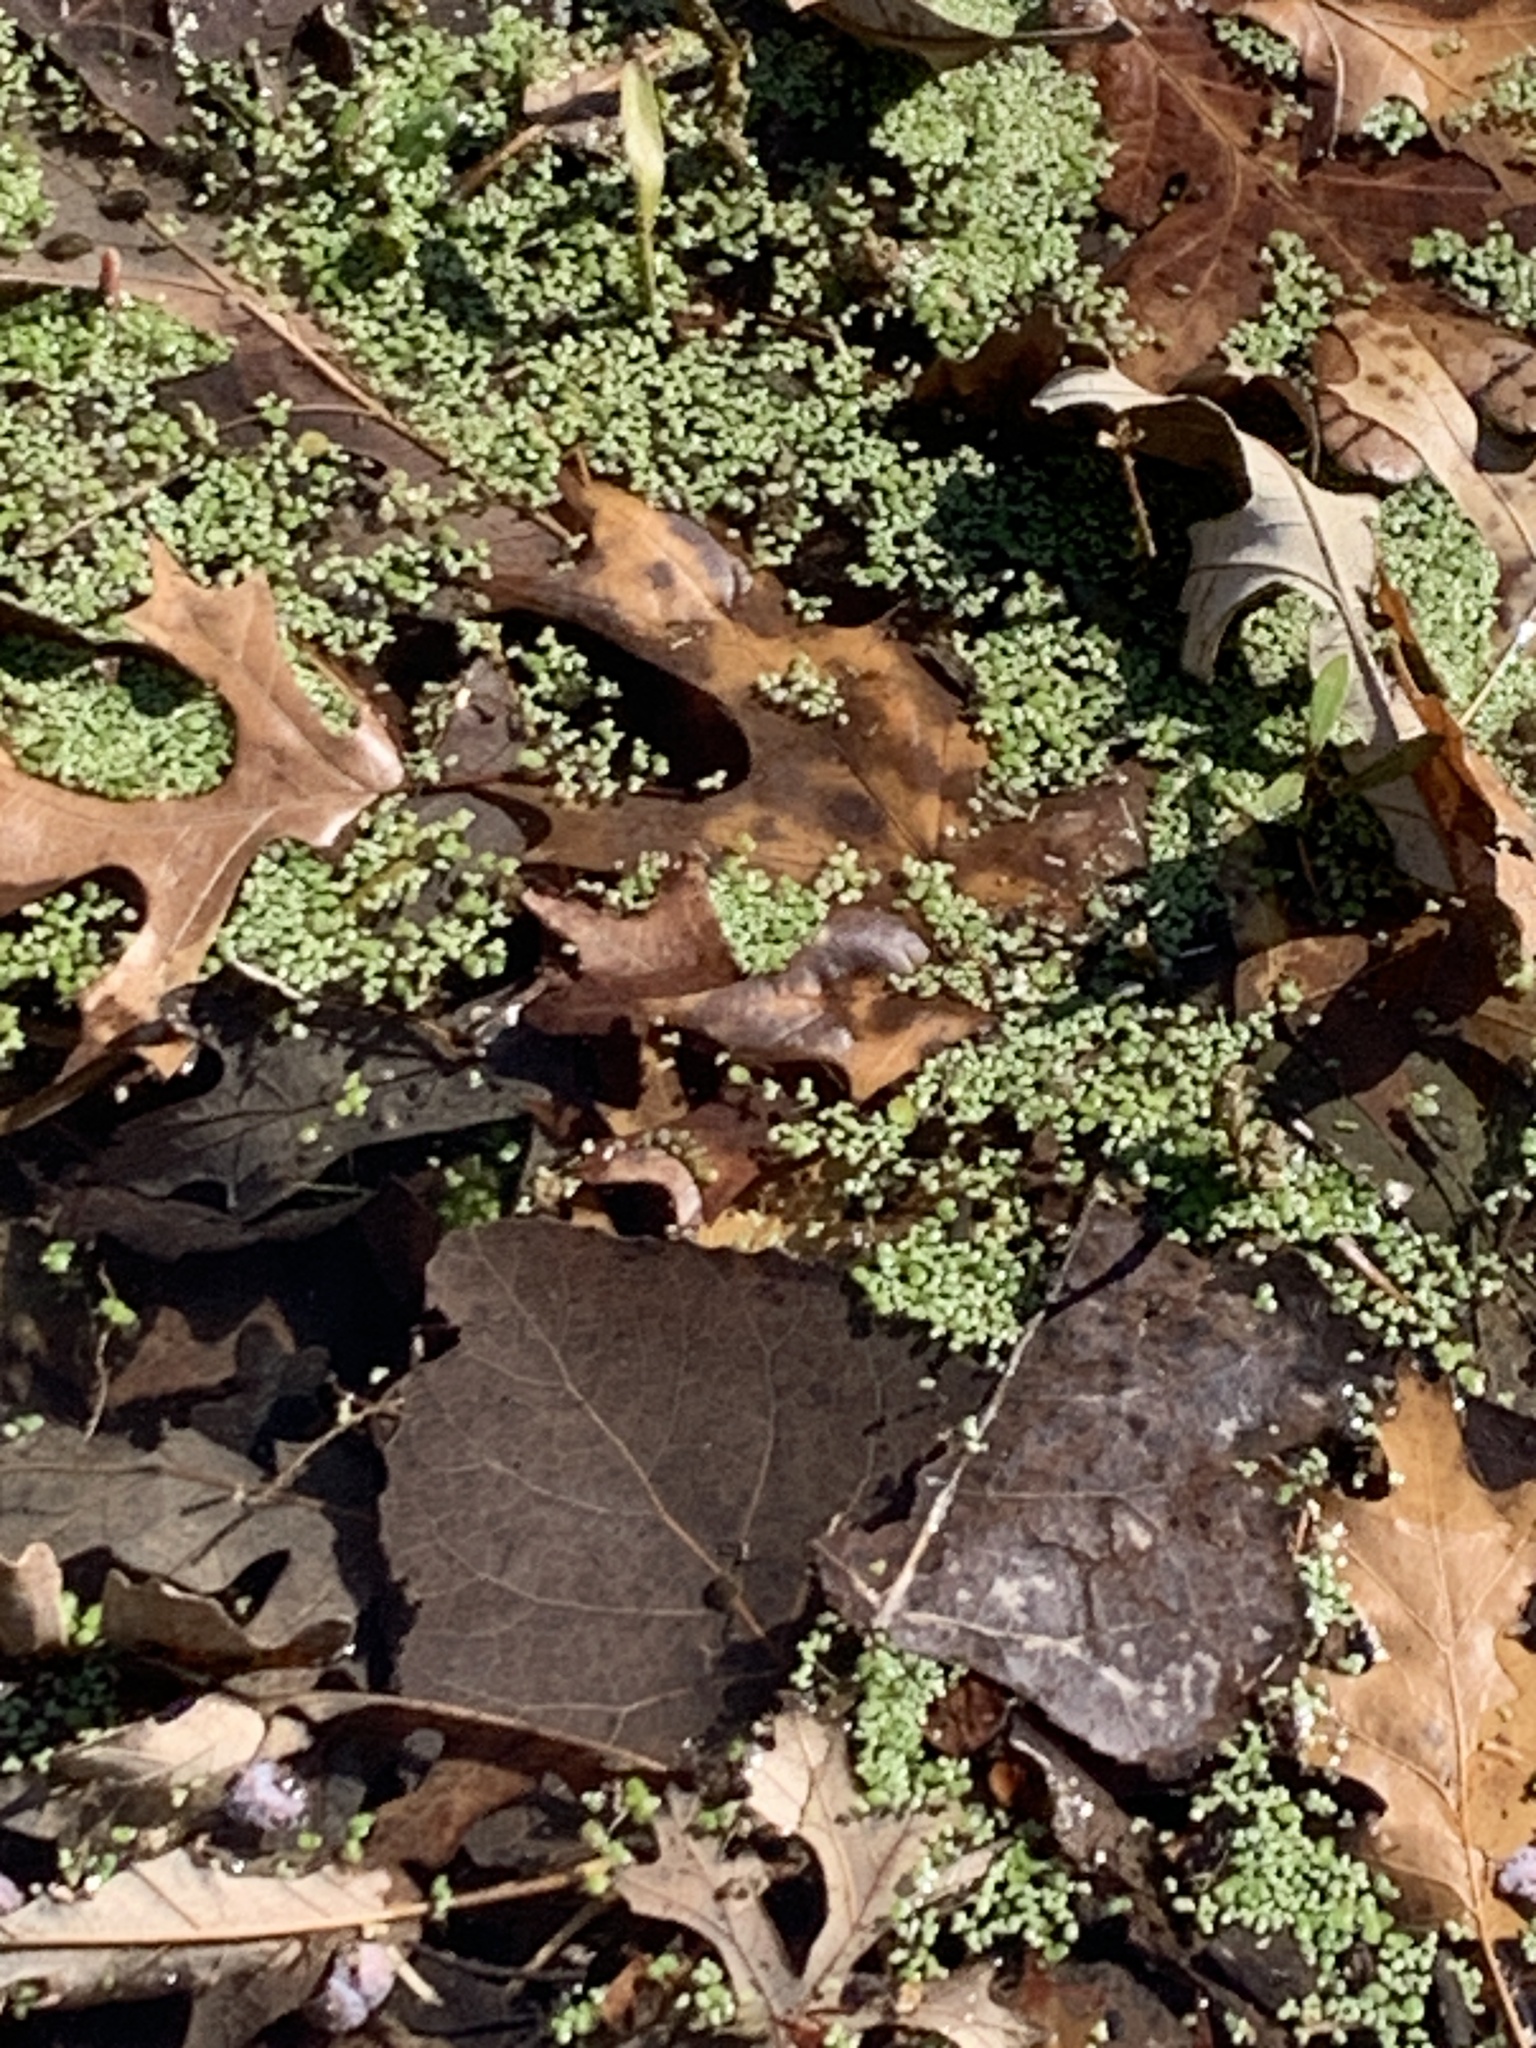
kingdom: Plantae
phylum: Tracheophyta
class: Liliopsida
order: Alismatales
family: Araceae
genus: Lemna
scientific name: Lemna minor
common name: Common duckweed
